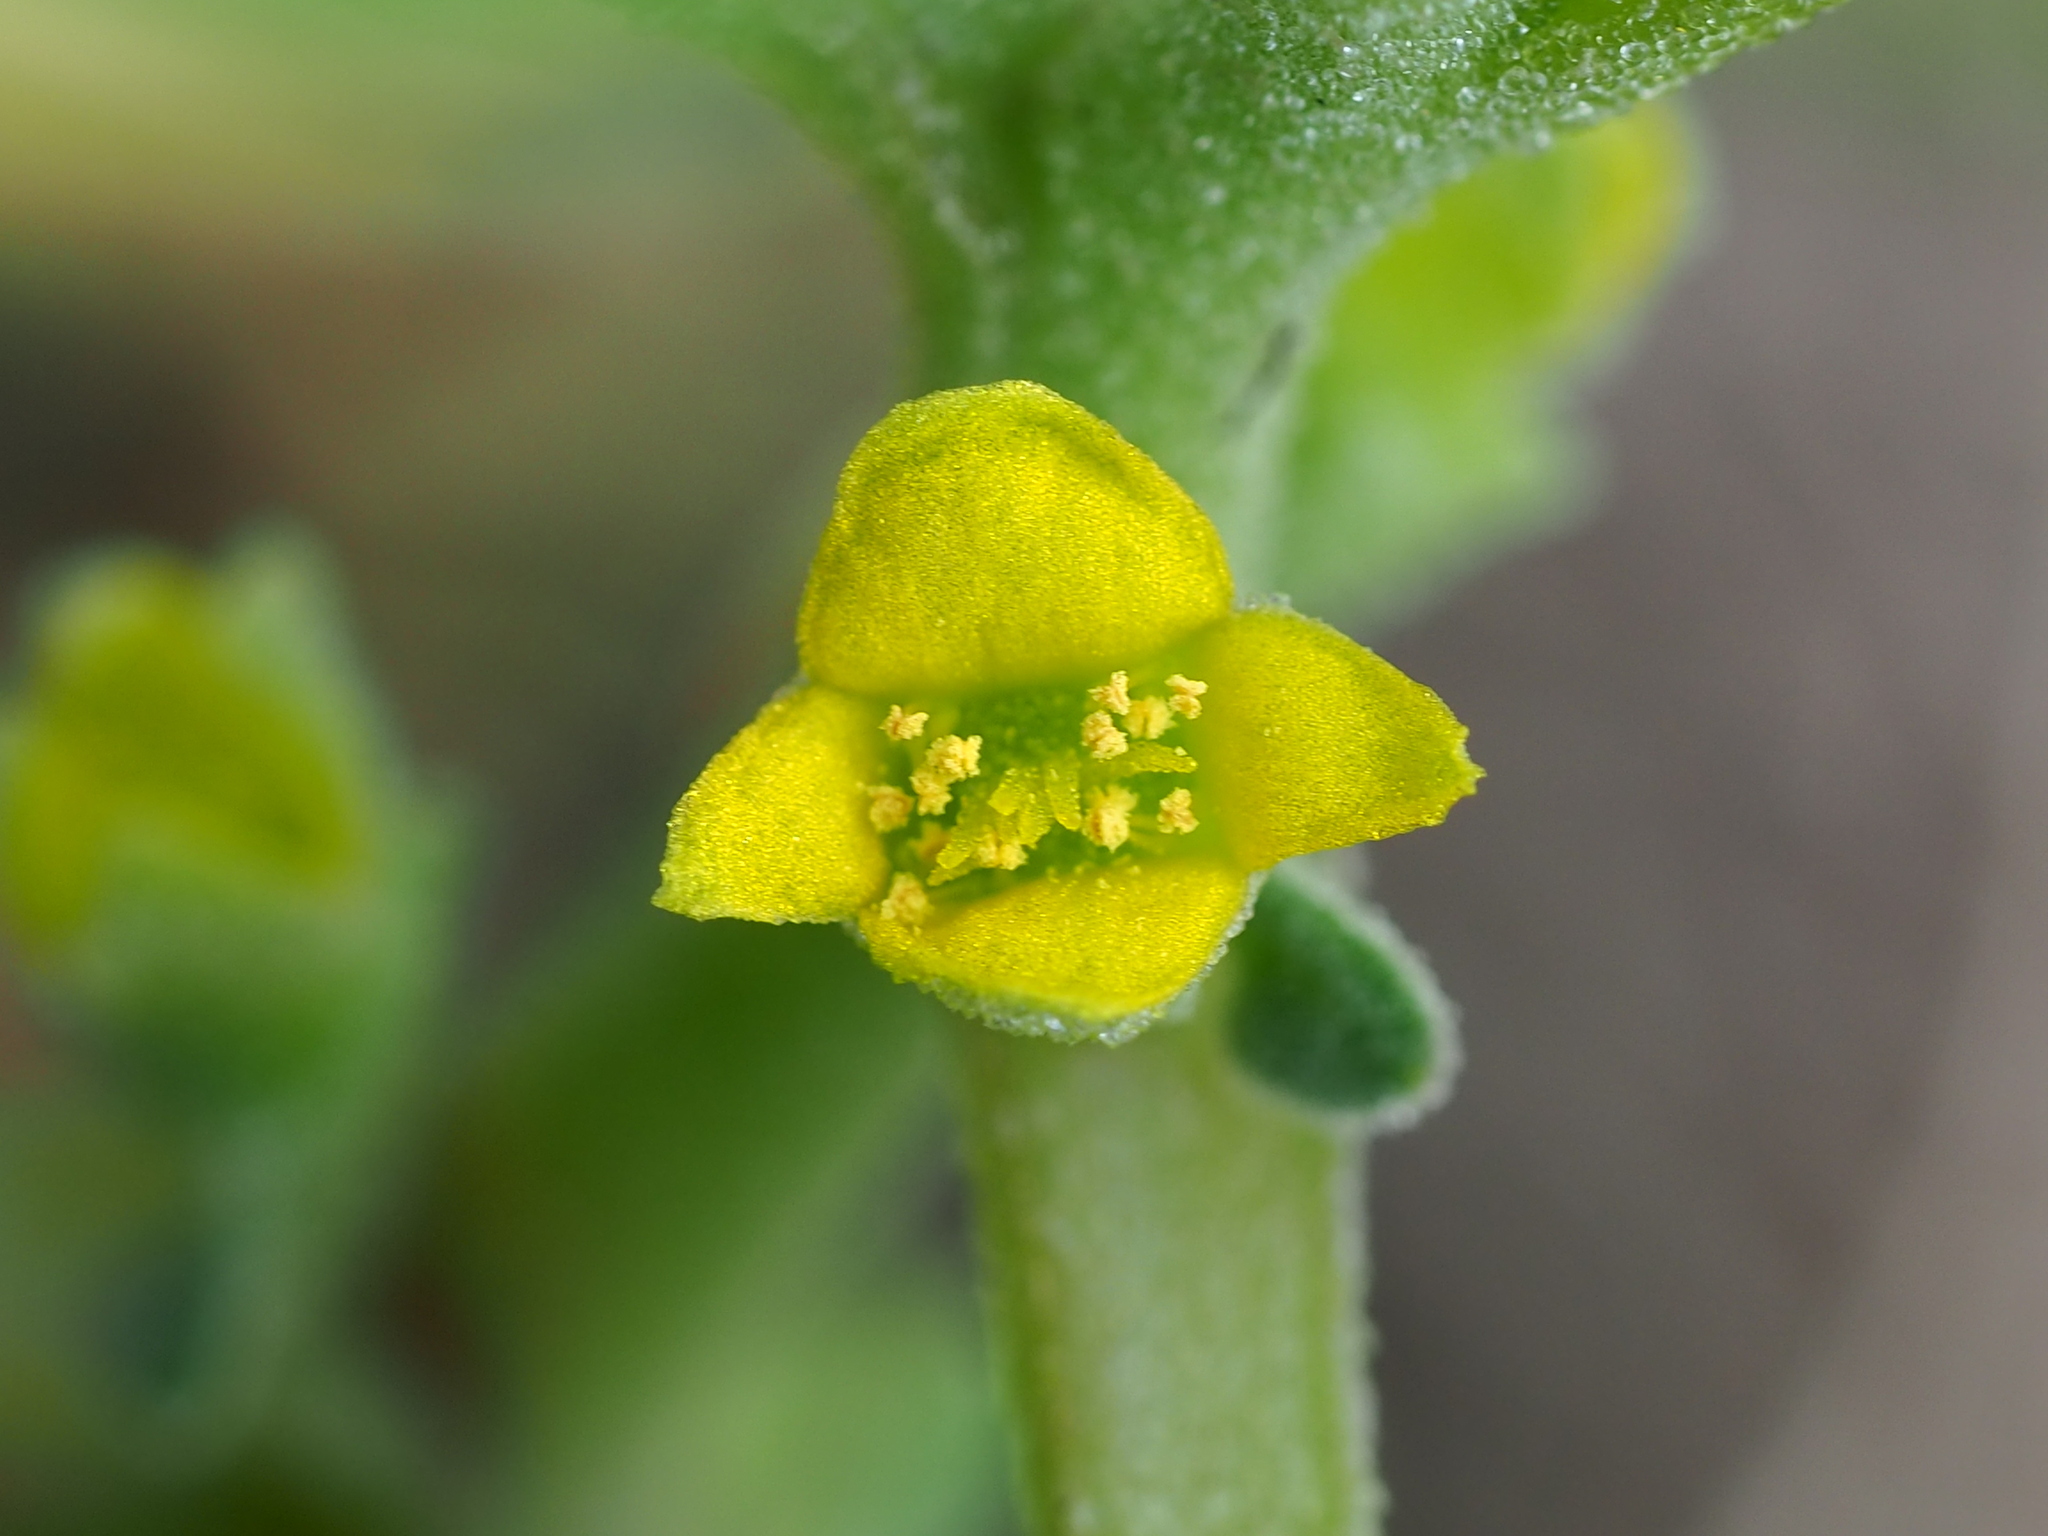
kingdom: Plantae
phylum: Tracheophyta
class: Magnoliopsida
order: Caryophyllales
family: Aizoaceae
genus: Tetragonia
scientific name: Tetragonia tetragonoides
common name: New zealand-spinach
